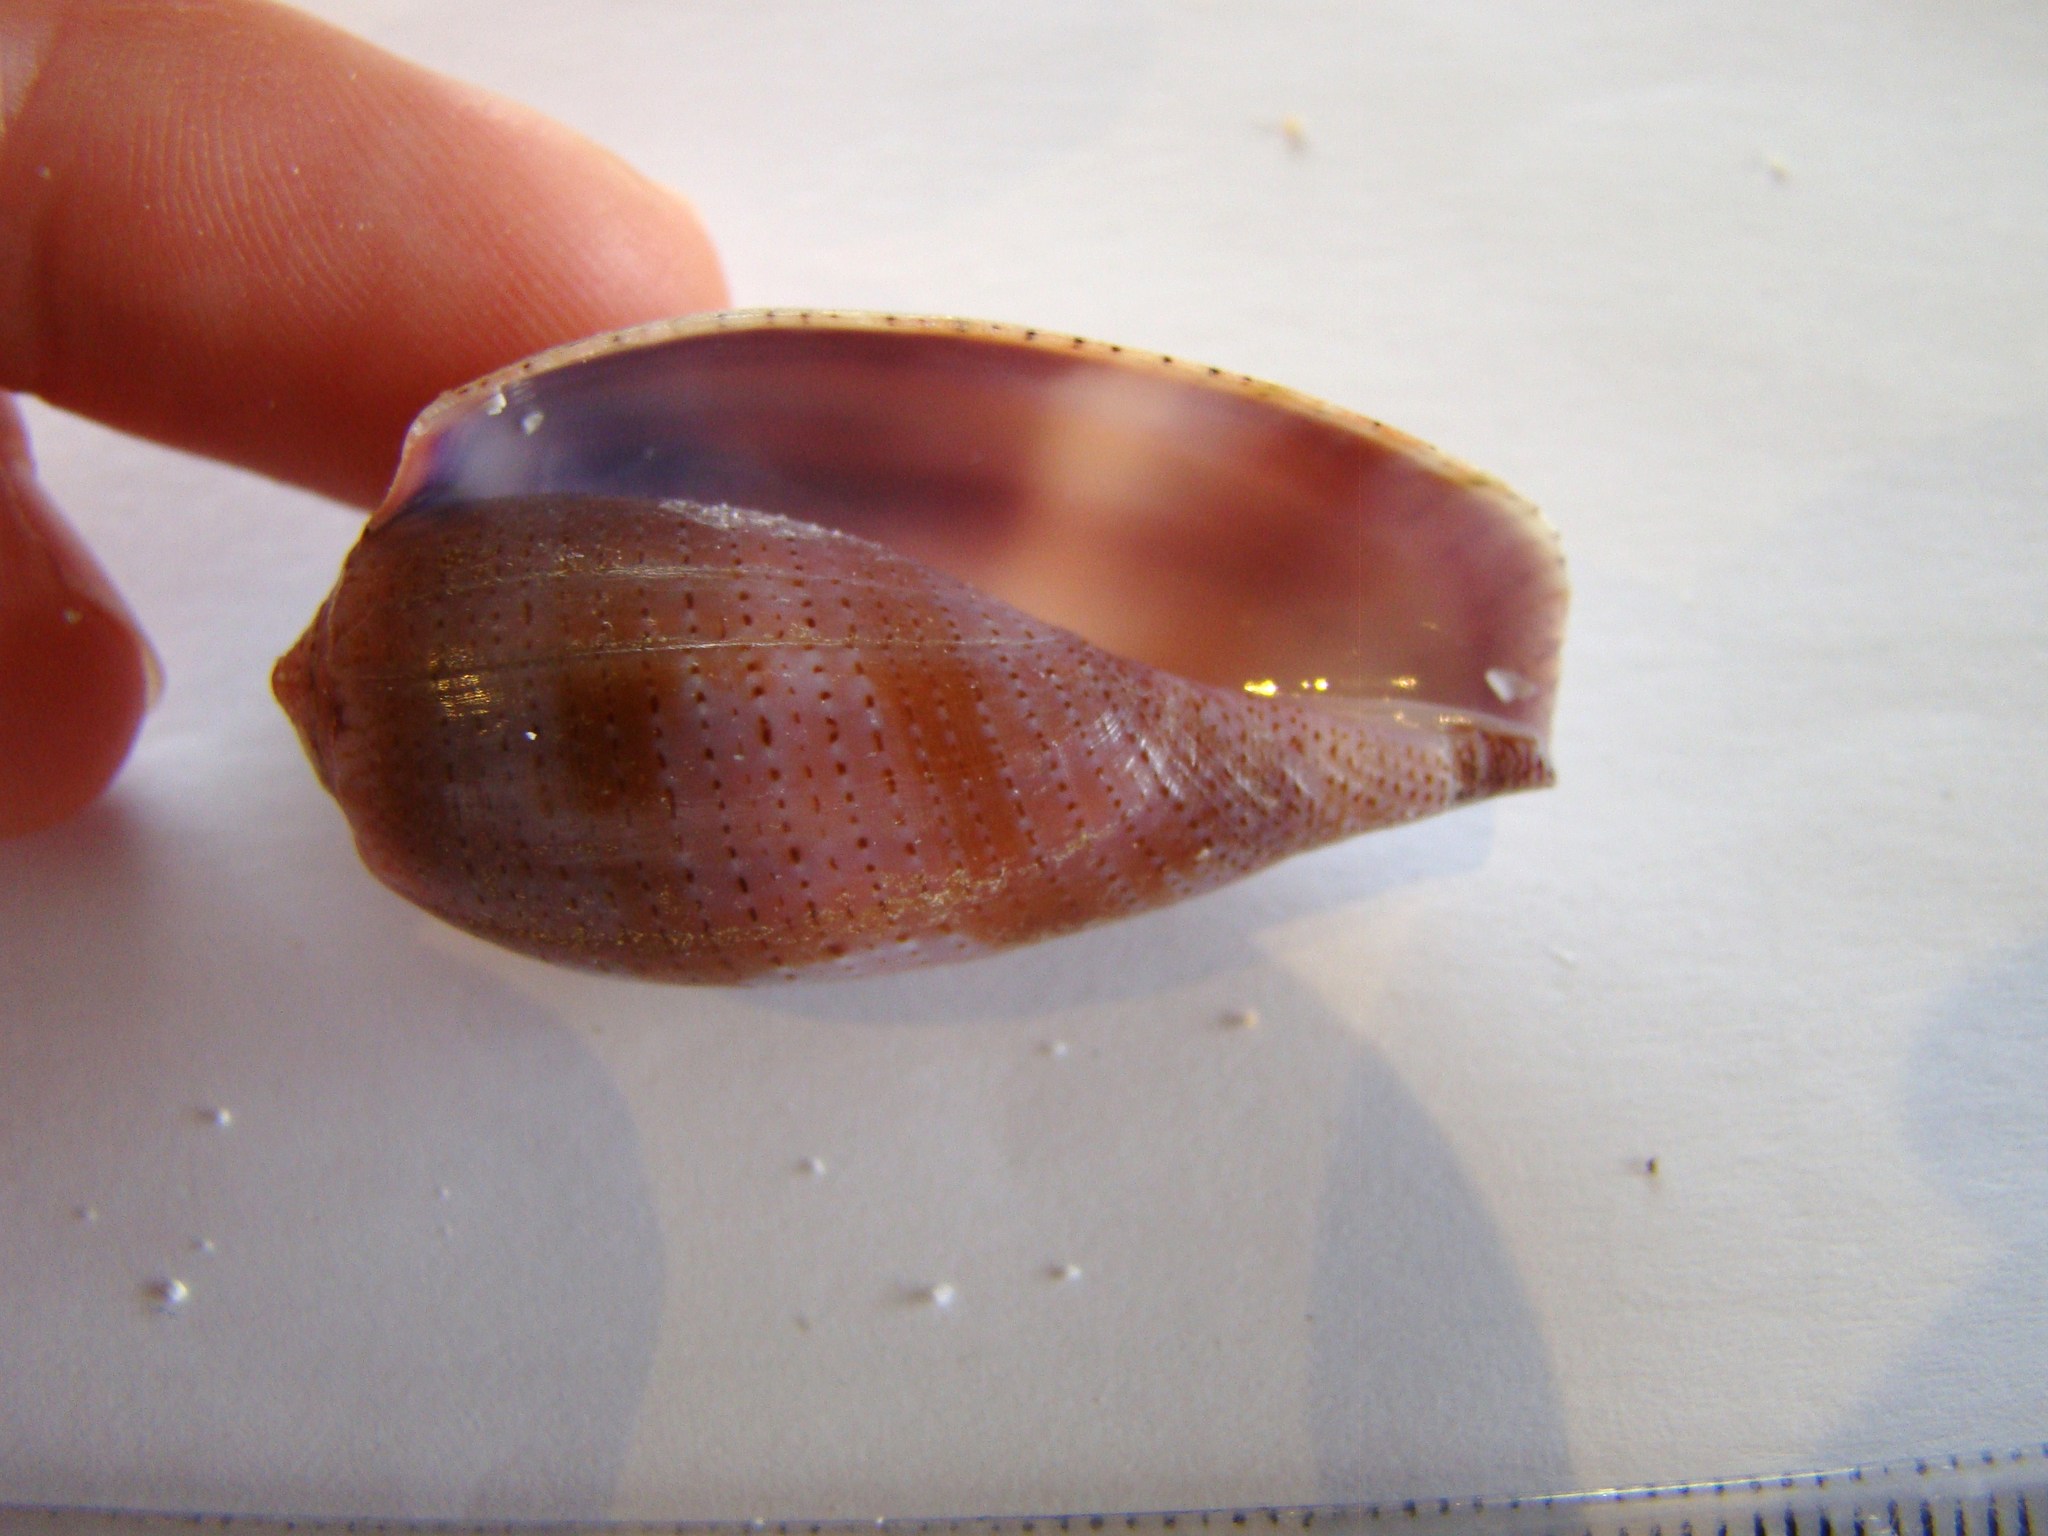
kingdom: Animalia
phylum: Mollusca
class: Gastropoda
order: Neogastropoda
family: Conidae
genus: Conus
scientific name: Conus tulipa
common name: Tulip cone
